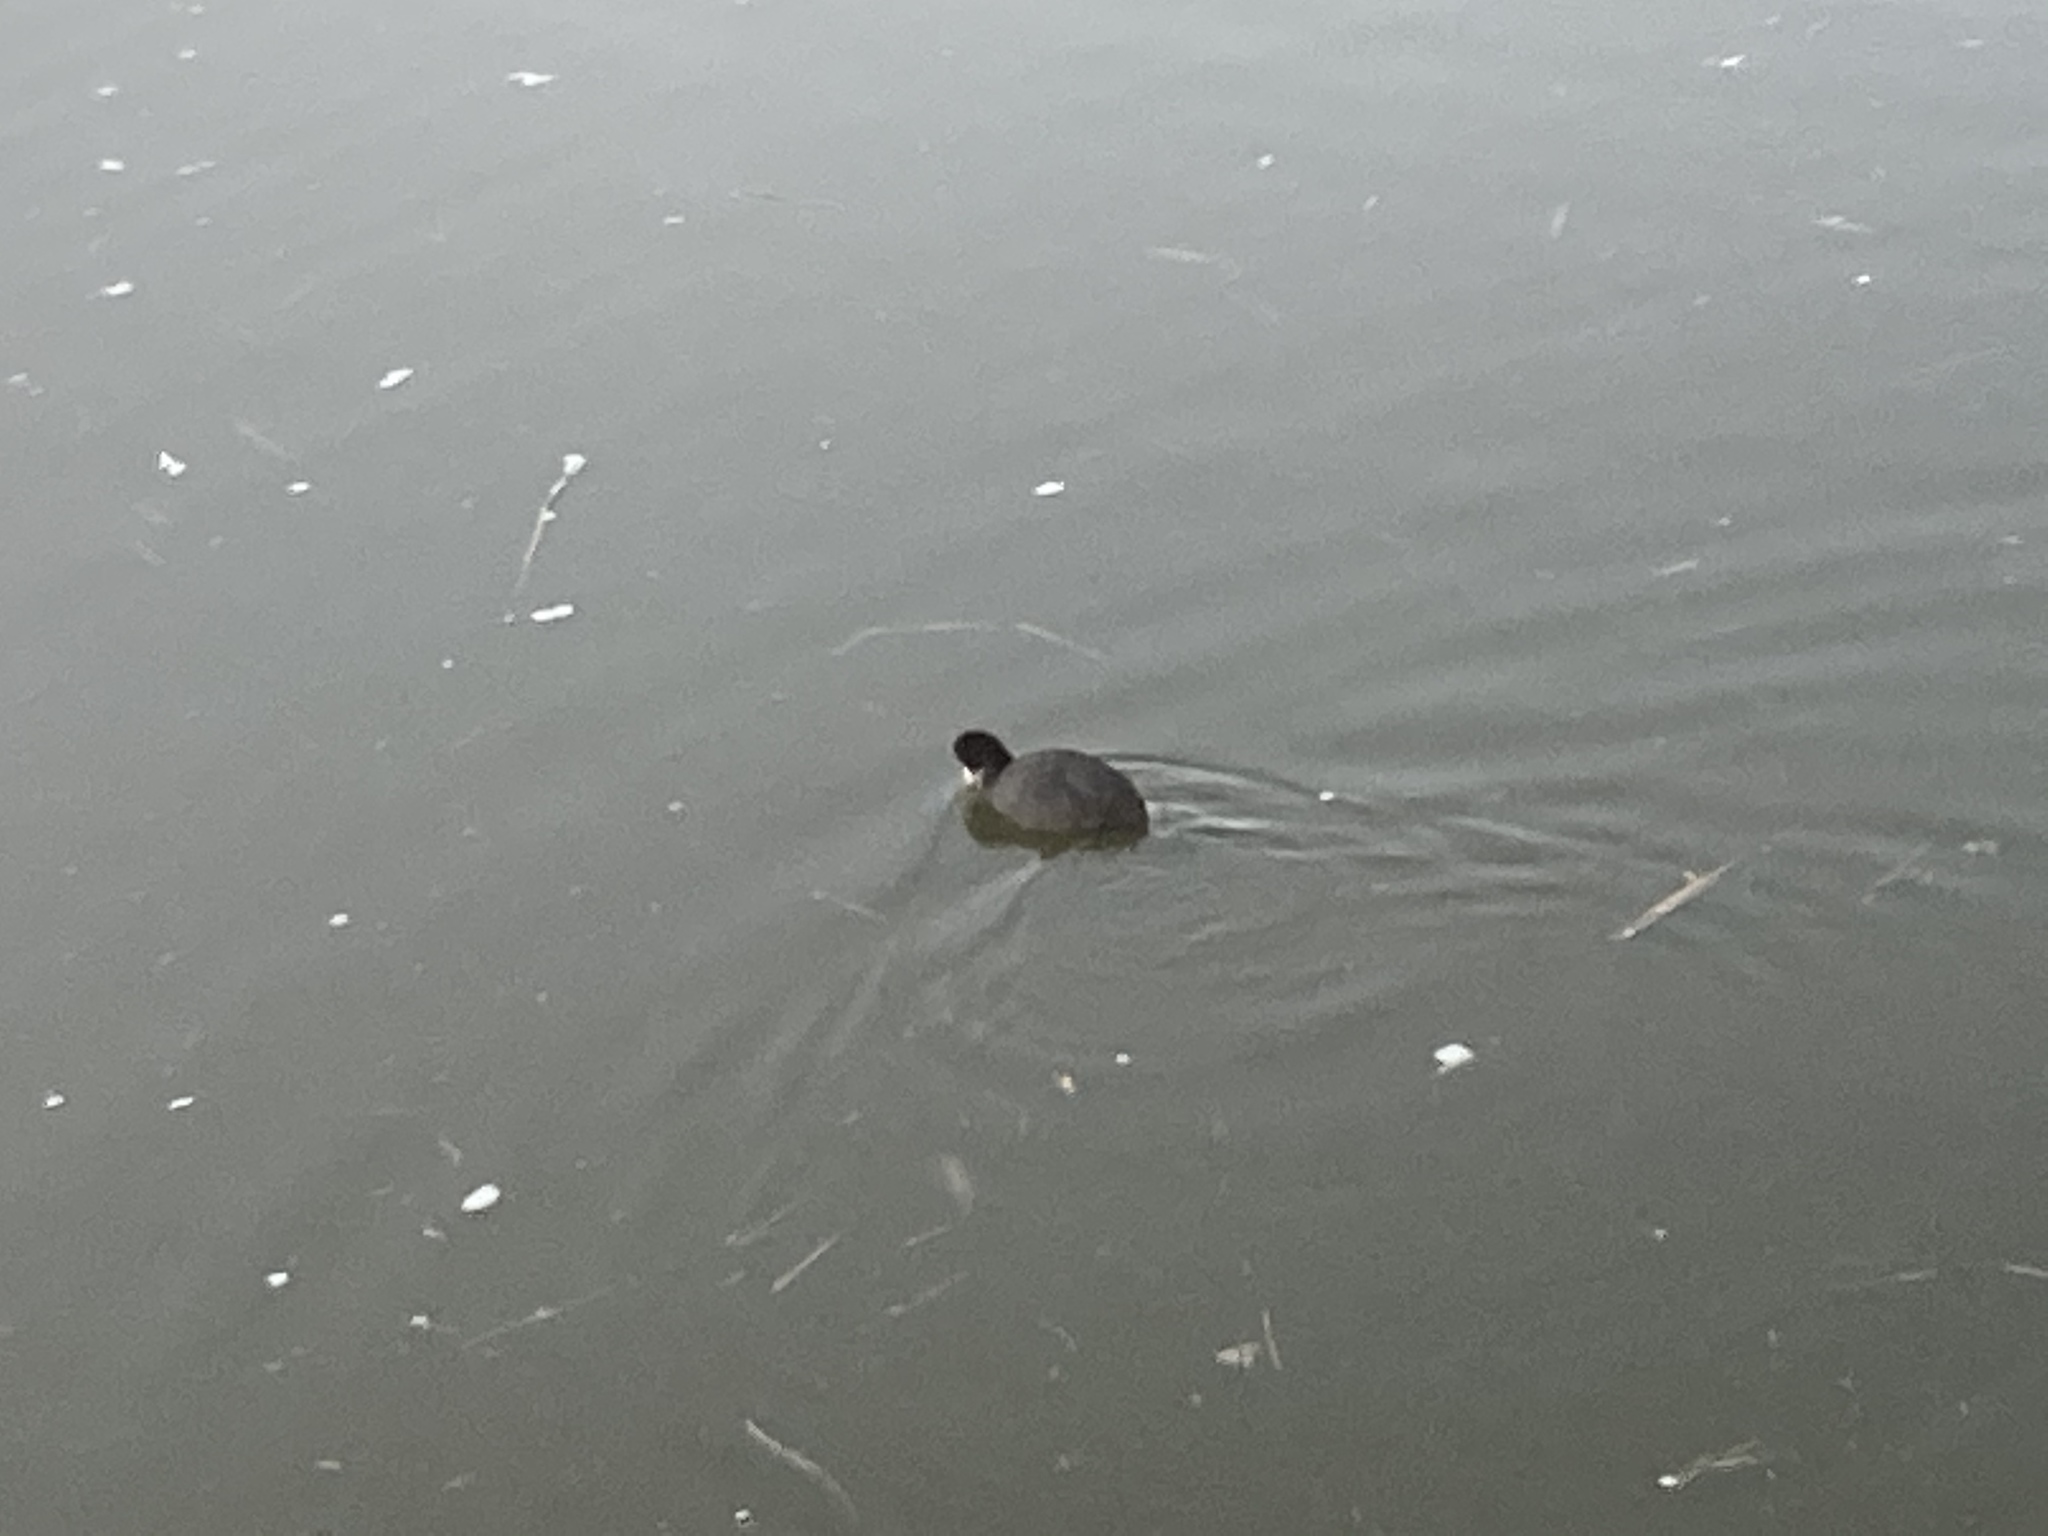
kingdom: Animalia
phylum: Chordata
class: Aves
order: Gruiformes
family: Rallidae
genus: Fulica
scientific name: Fulica atra
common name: Eurasian coot
